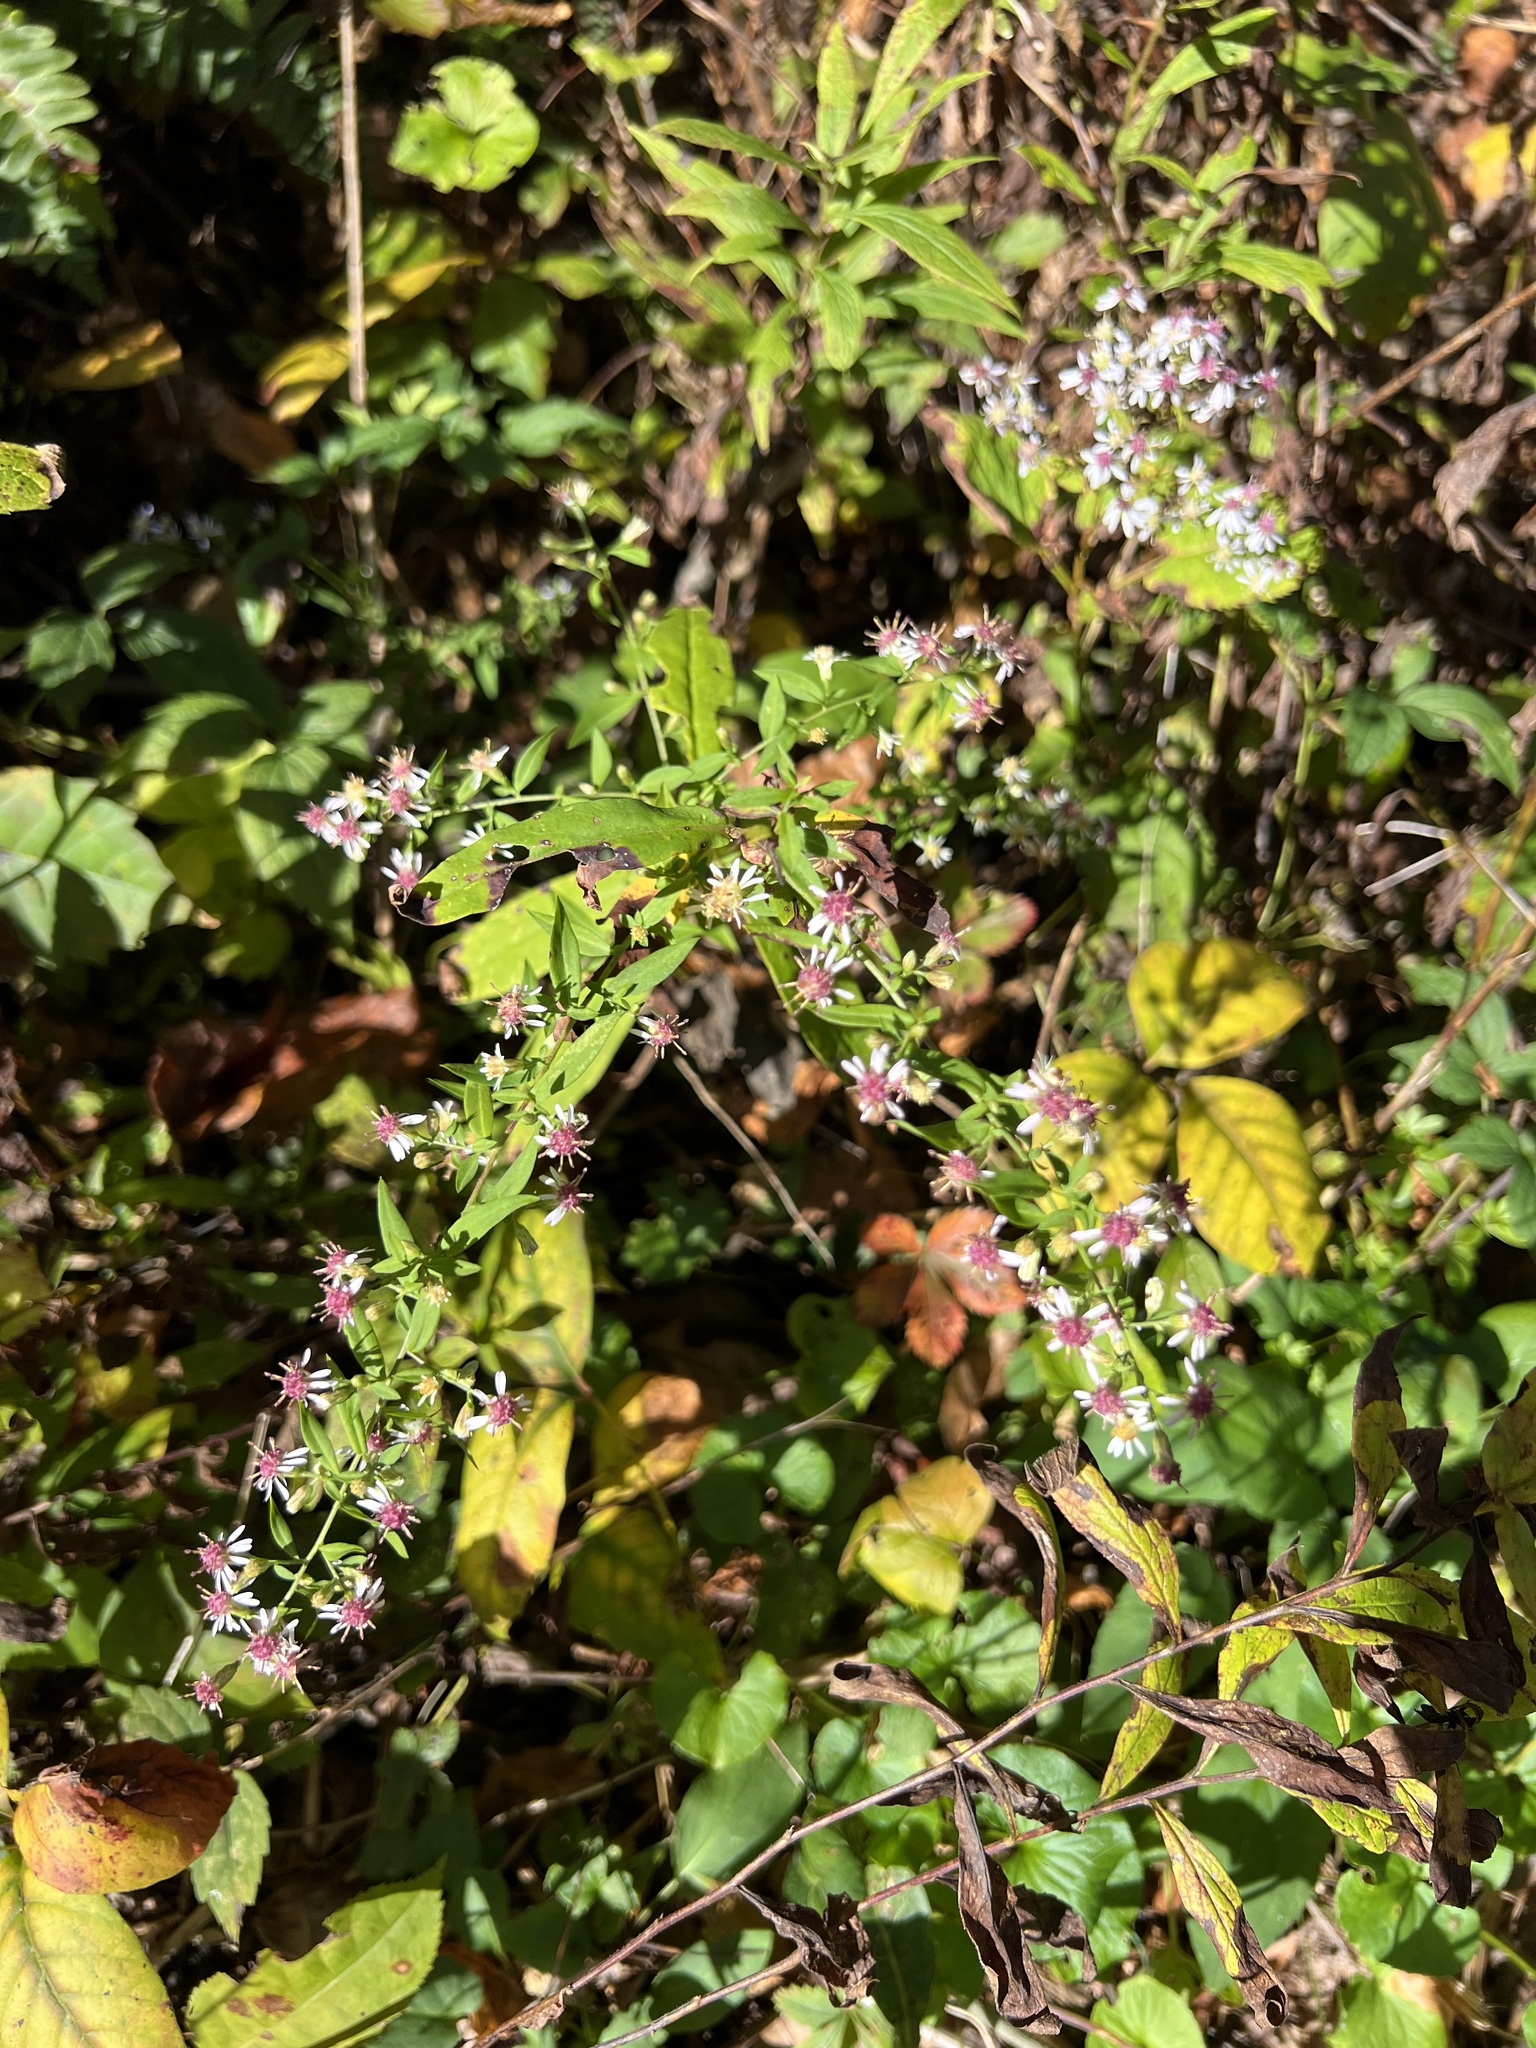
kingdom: Plantae
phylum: Tracheophyta
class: Magnoliopsida
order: Asterales
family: Asteraceae
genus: Symphyotrichum
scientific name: Symphyotrichum lateriflorum
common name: Calico aster
